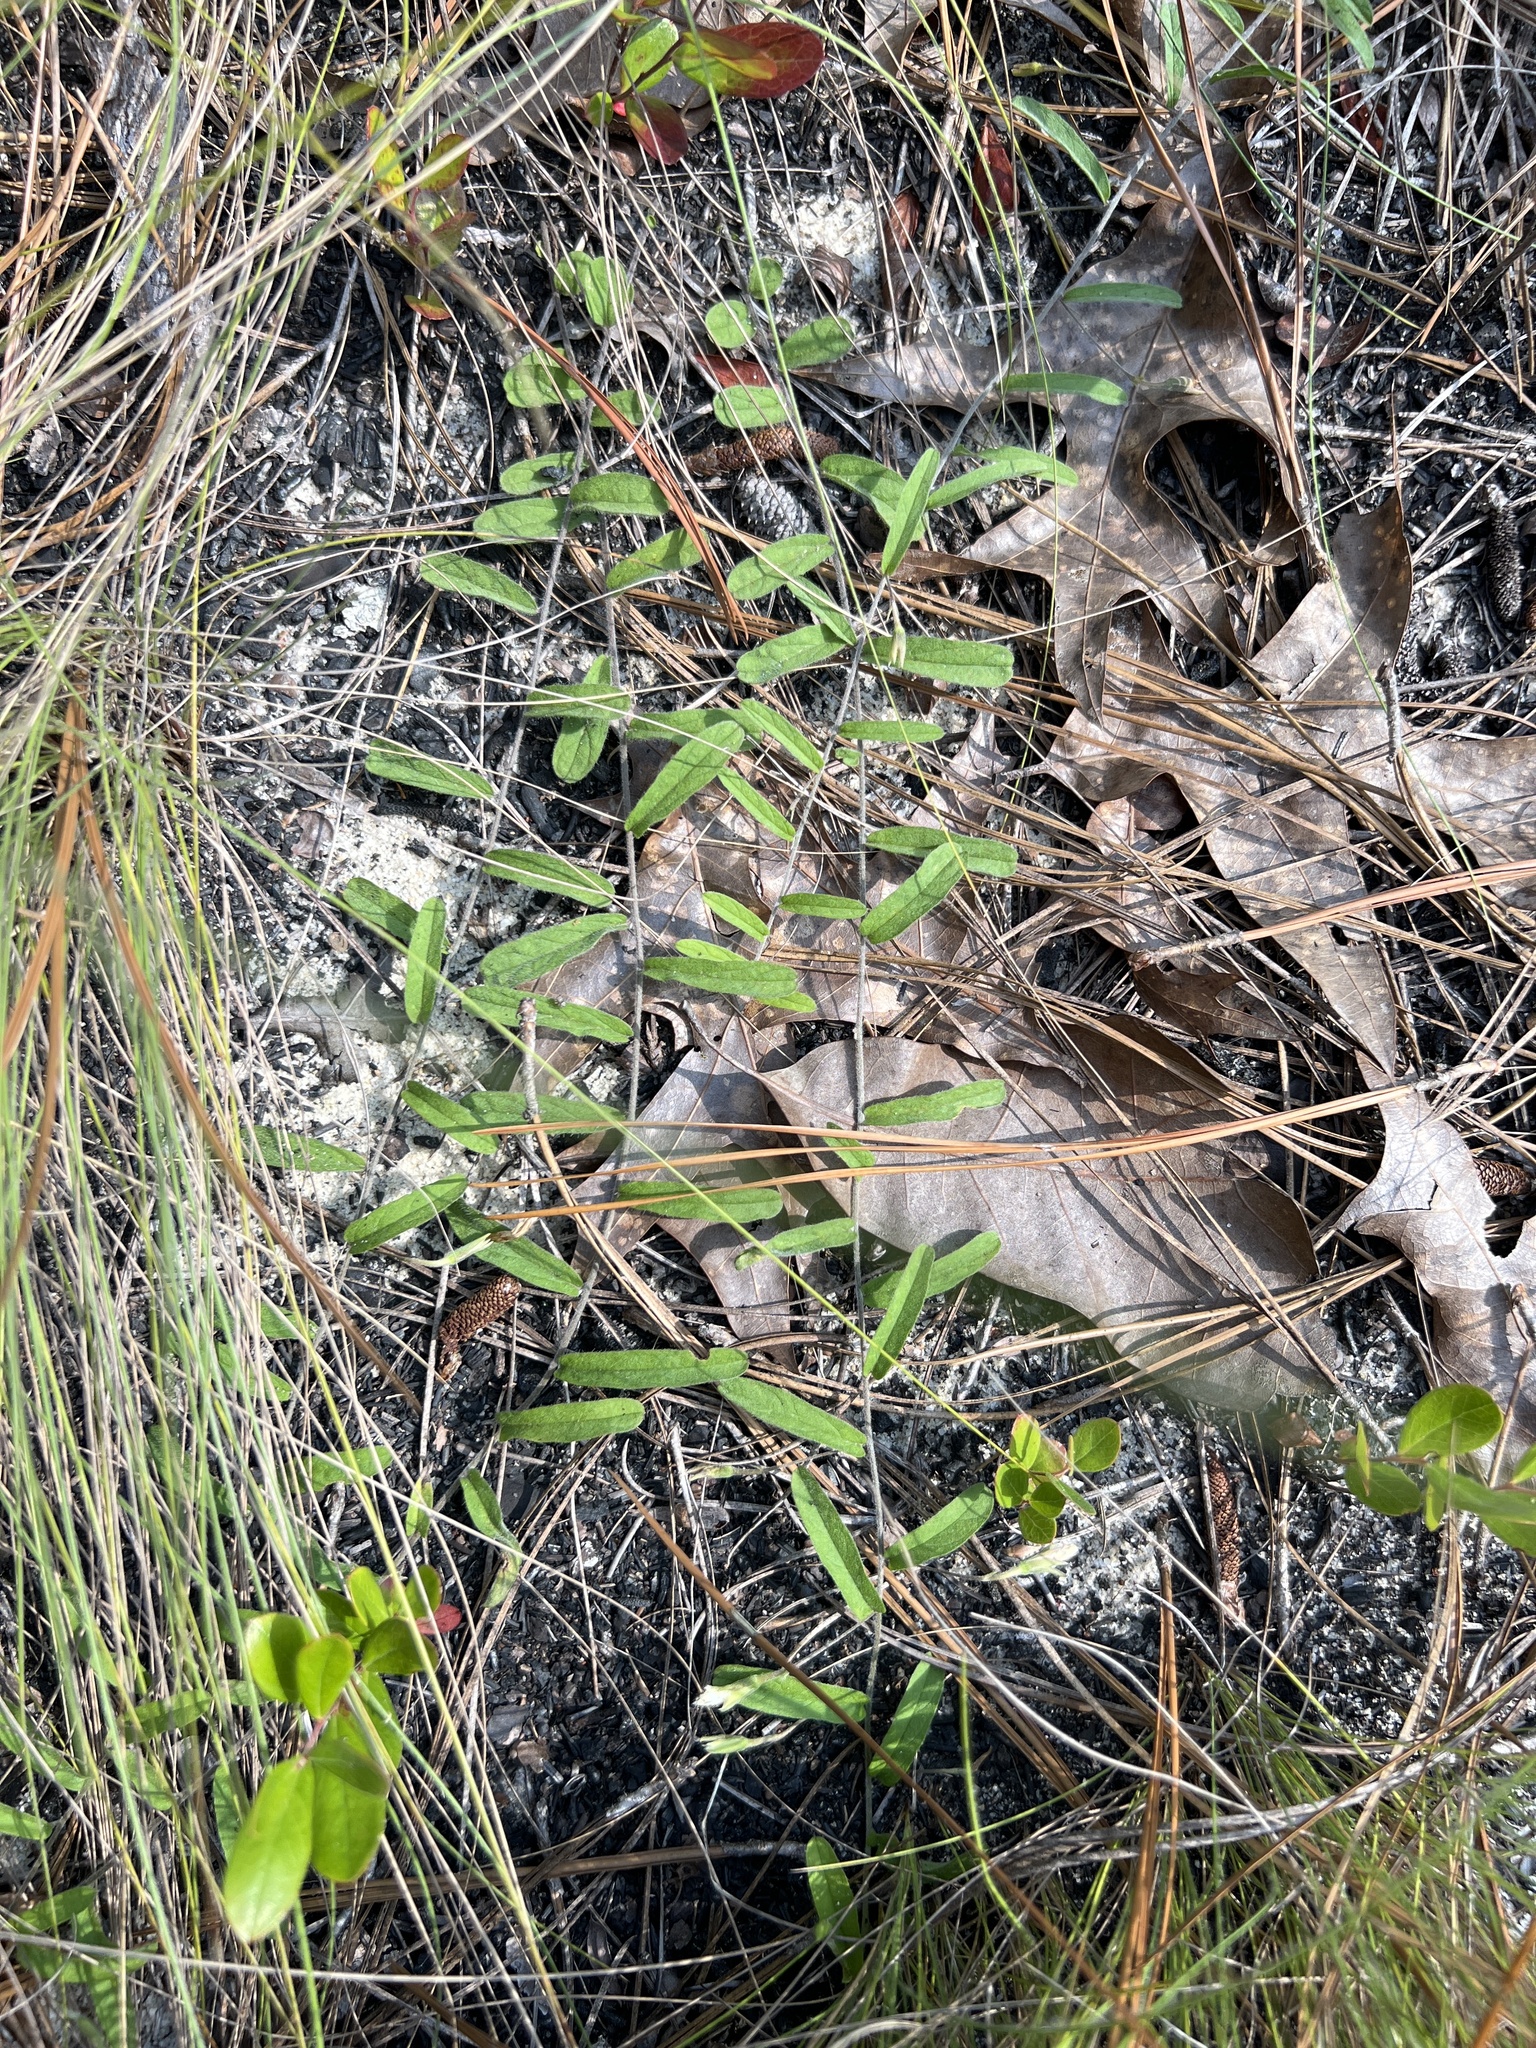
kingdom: Plantae
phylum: Tracheophyta
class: Magnoliopsida
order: Solanales
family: Convolvulaceae
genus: Stylisma
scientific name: Stylisma patens
